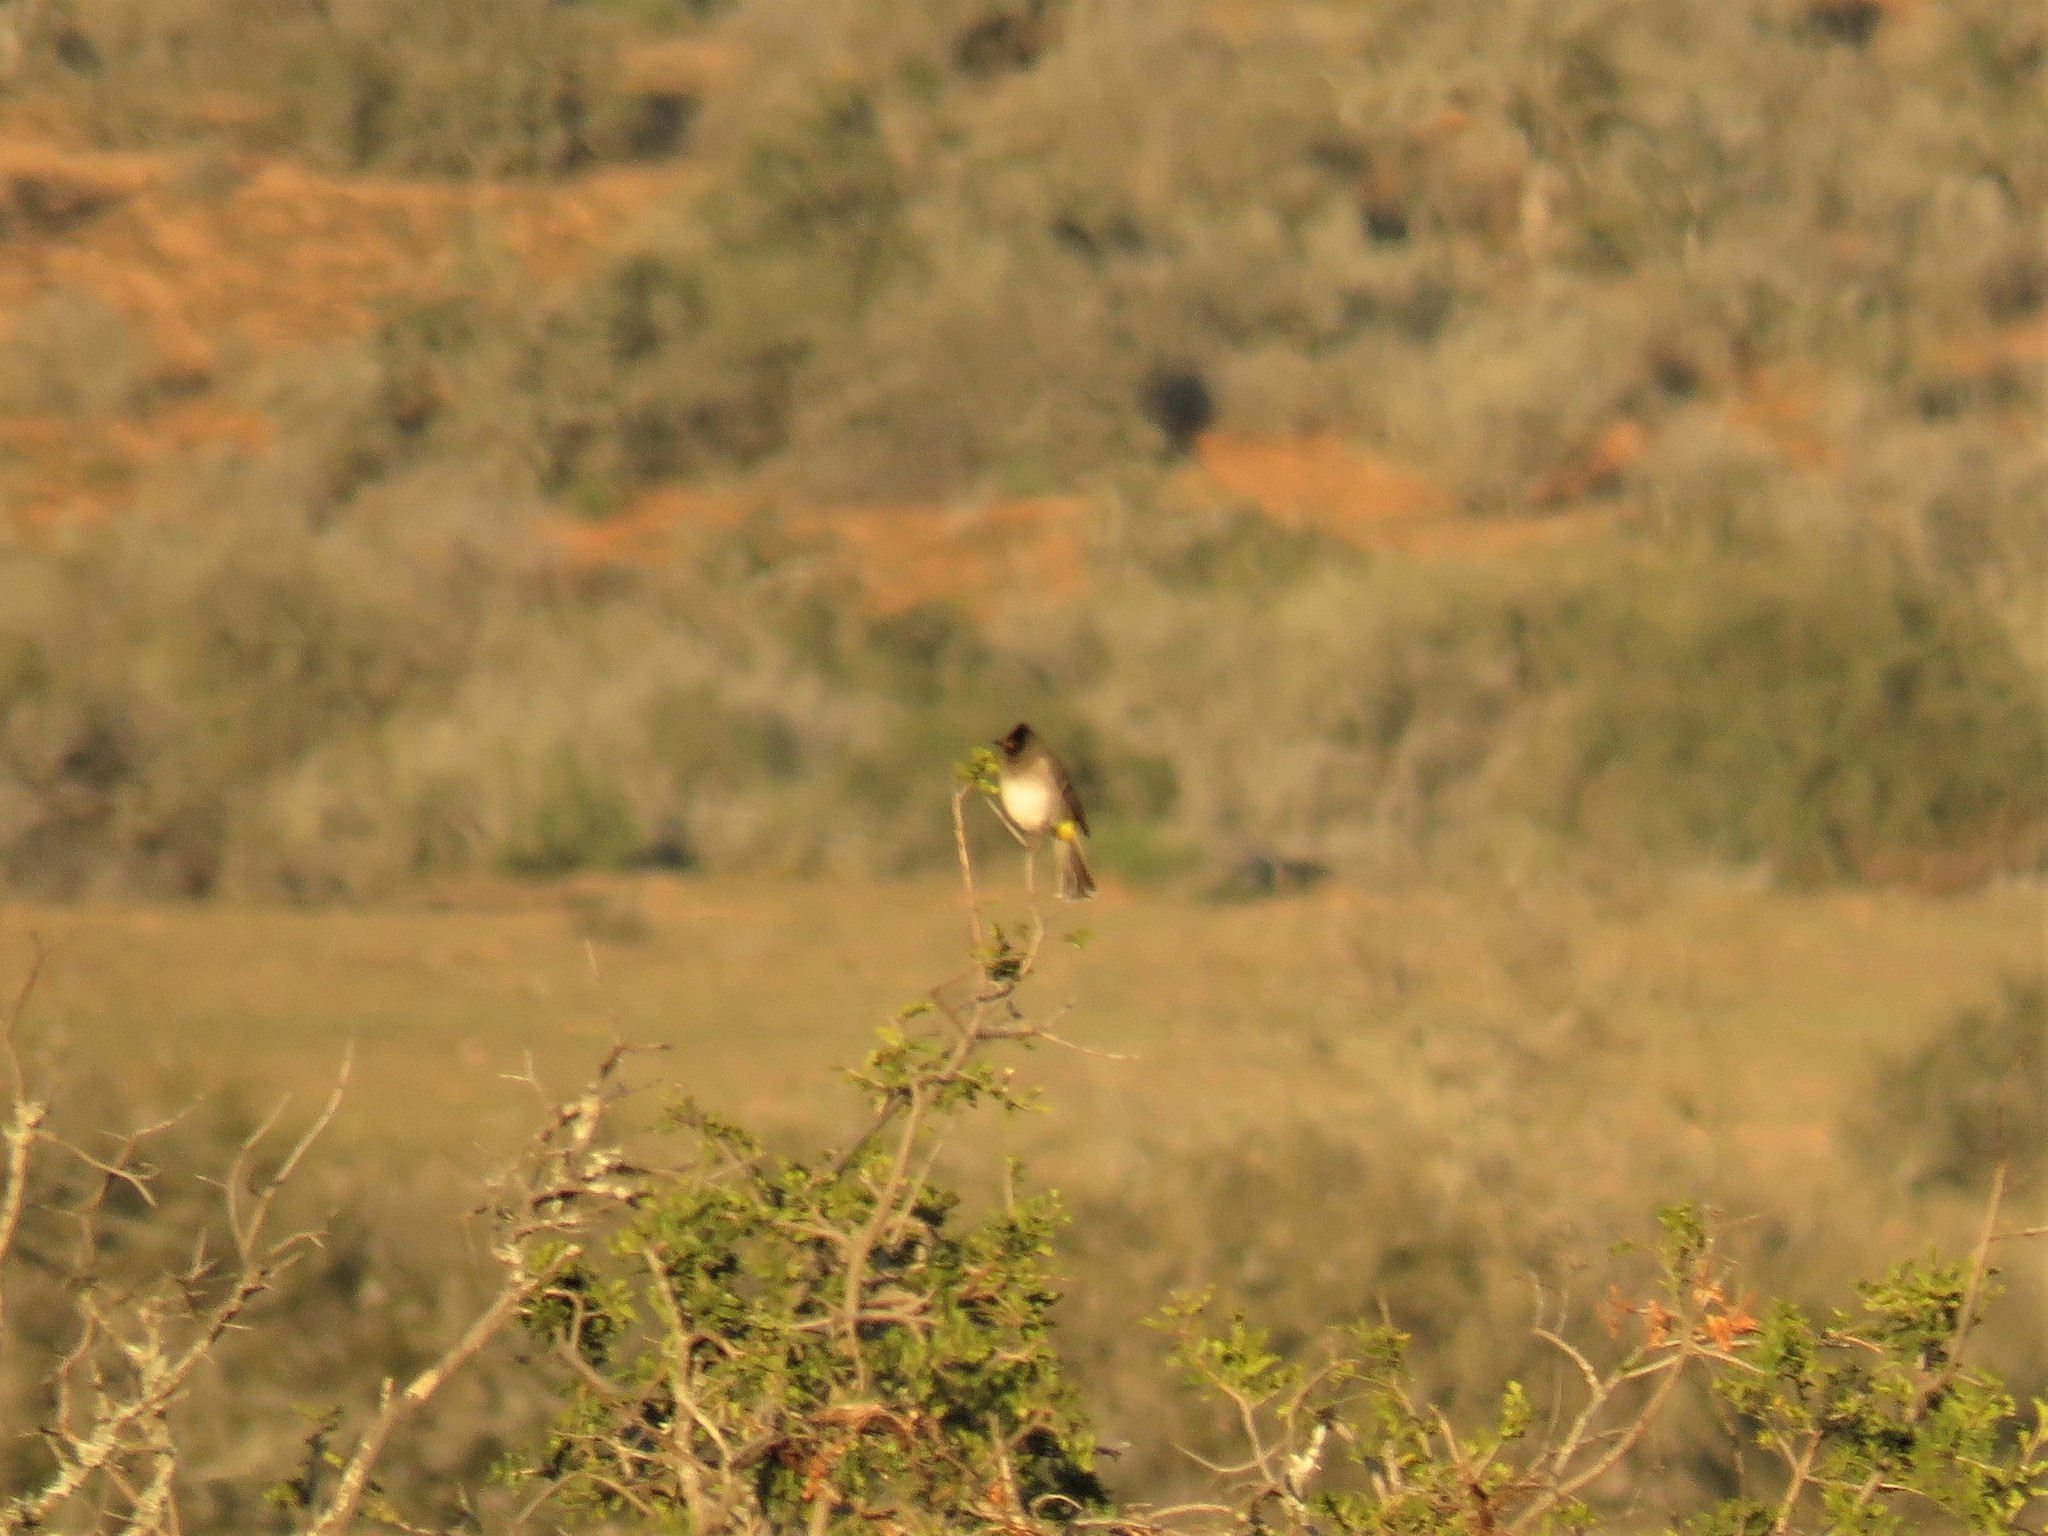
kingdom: Animalia
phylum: Chordata
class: Aves
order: Passeriformes
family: Pycnonotidae
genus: Pycnonotus
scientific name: Pycnonotus barbatus
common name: Common bulbul
